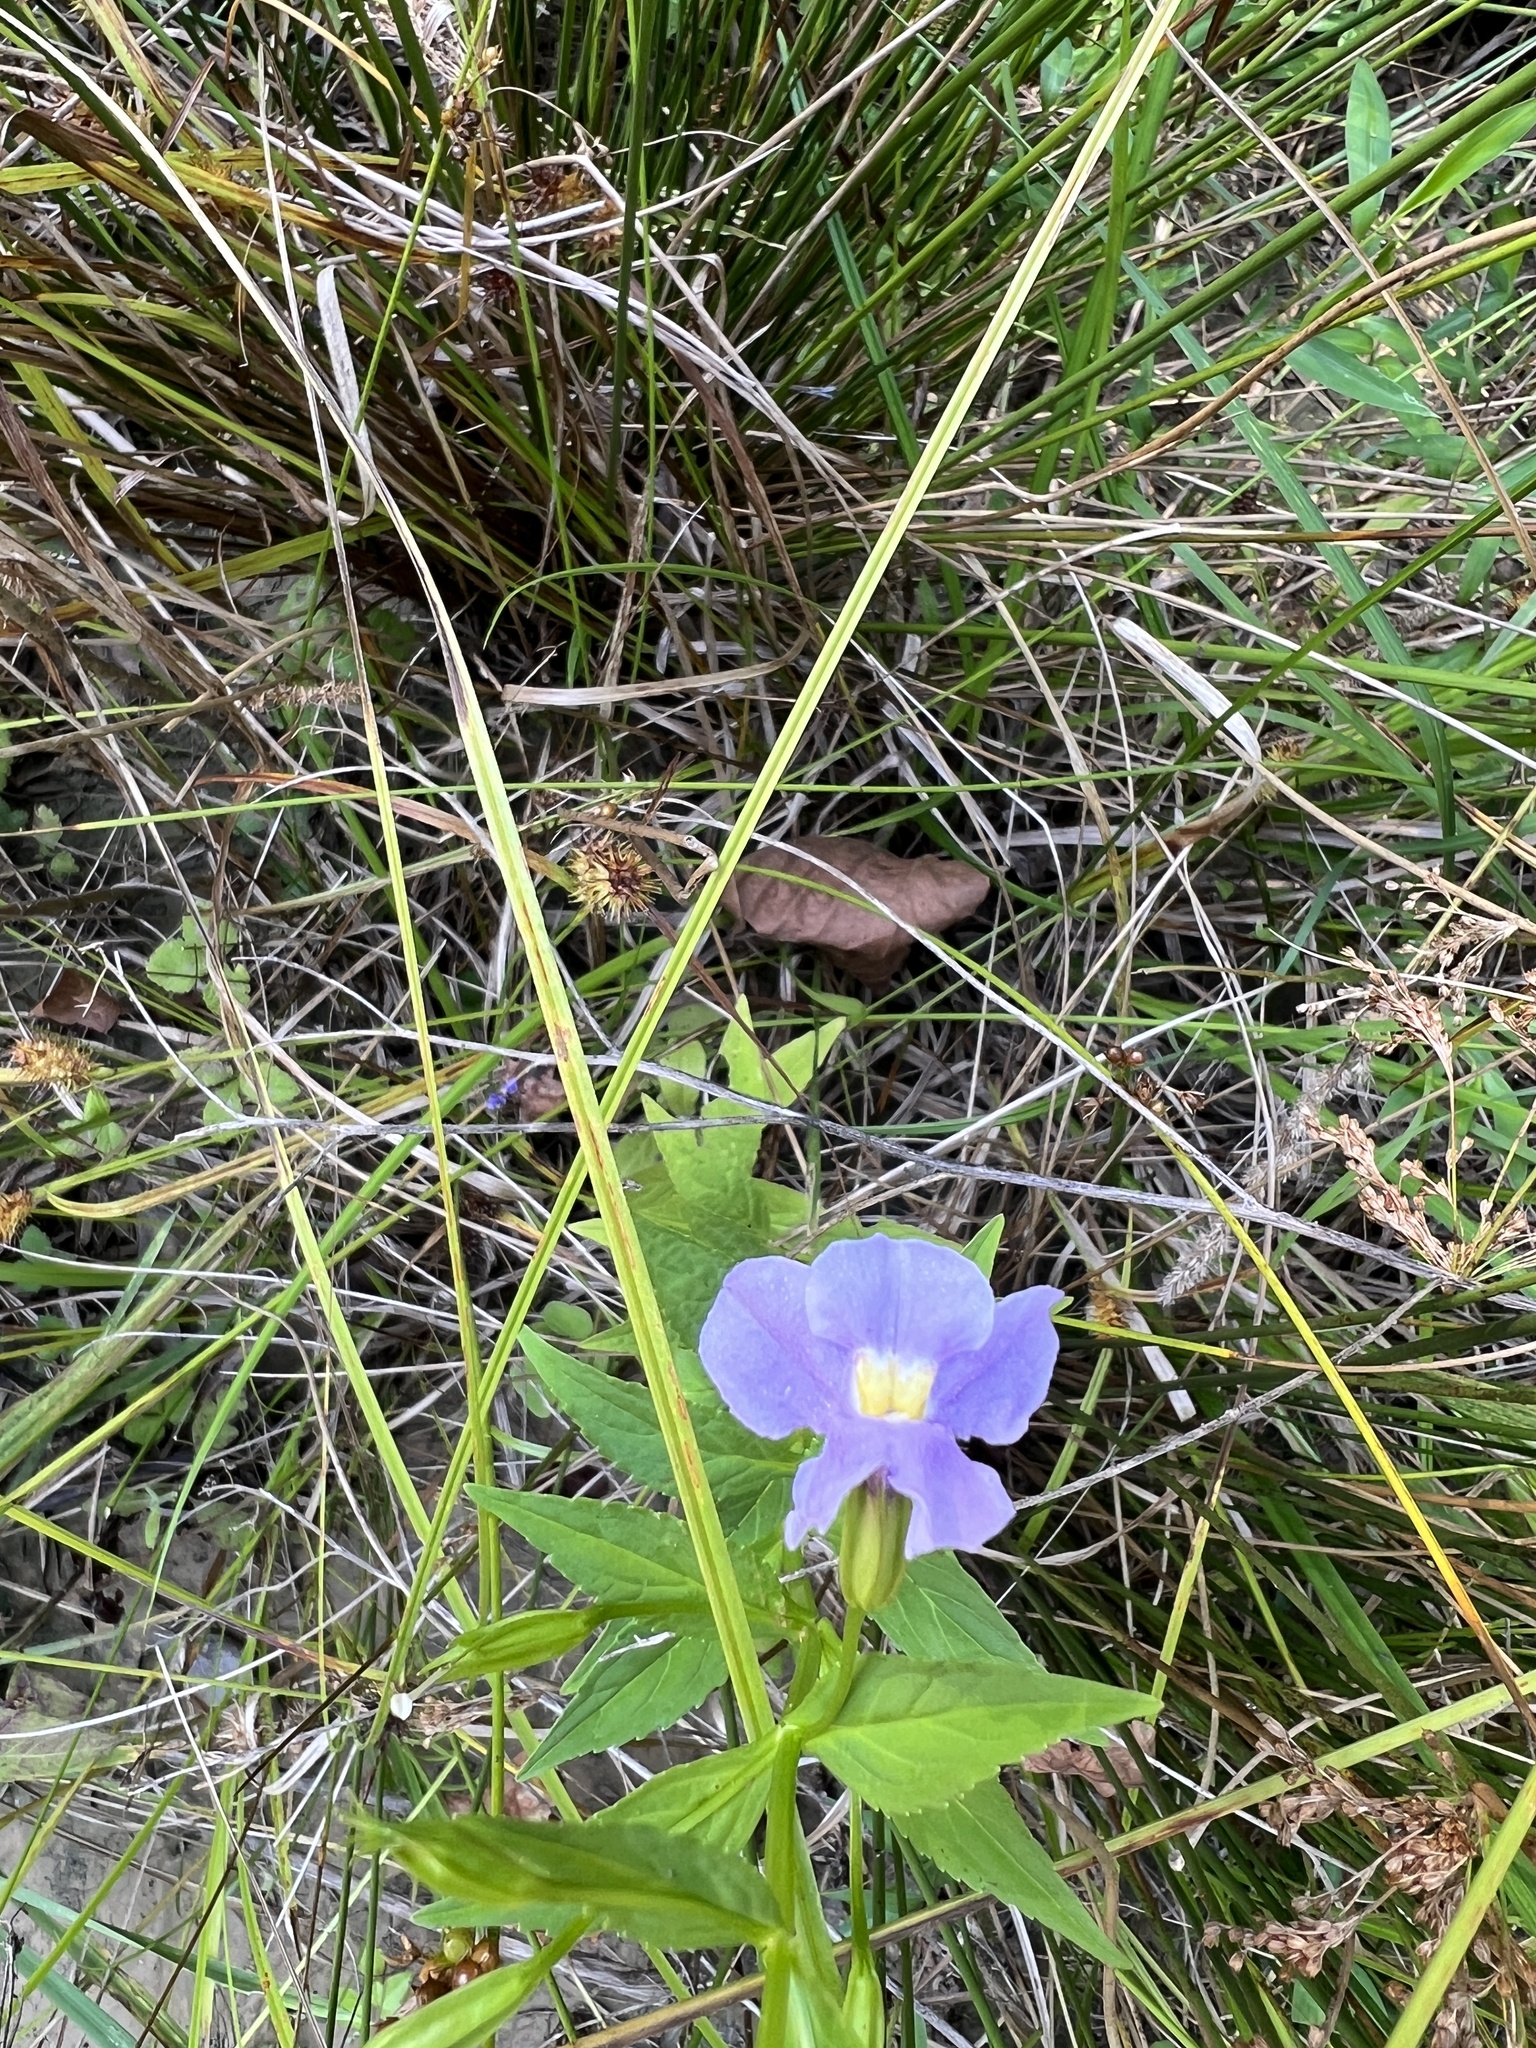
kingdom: Plantae
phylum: Tracheophyta
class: Magnoliopsida
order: Lamiales
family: Phrymaceae
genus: Mimulus
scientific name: Mimulus ringens
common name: Allegheny monkeyflower
